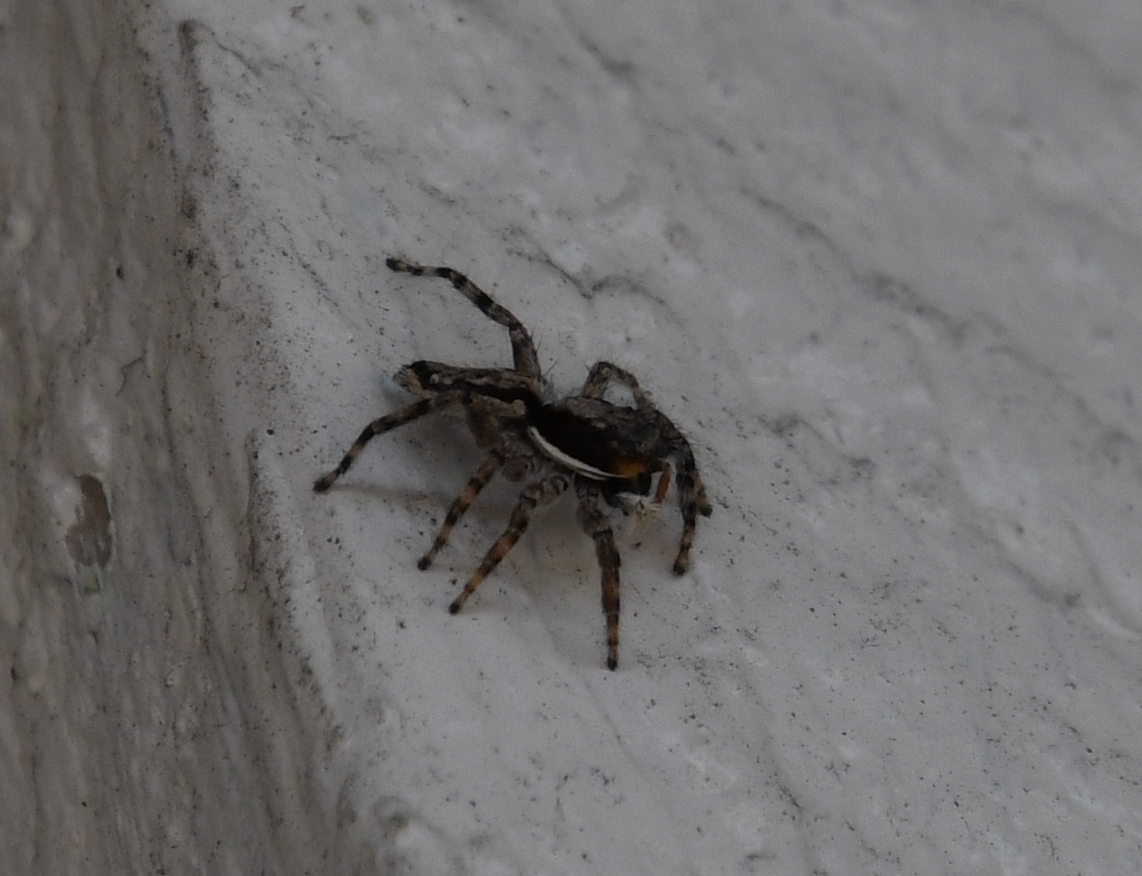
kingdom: Animalia
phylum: Arthropoda
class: Arachnida
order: Araneae
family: Salticidae
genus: Menemerus
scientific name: Menemerus bivittatus
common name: Gray wall jumper
